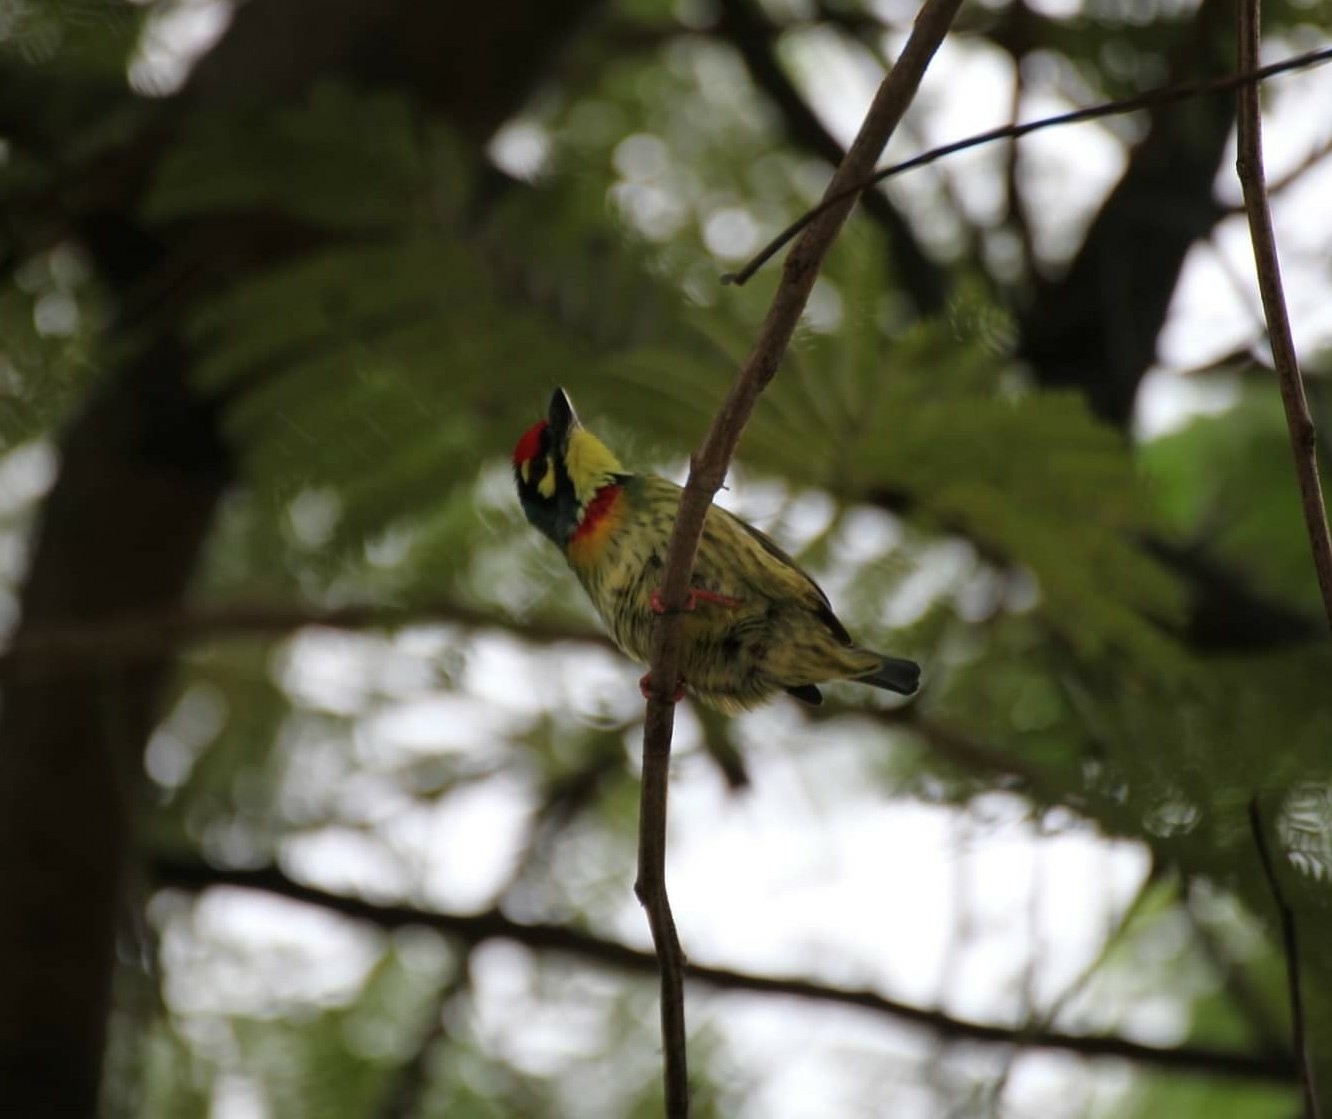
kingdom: Animalia
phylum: Chordata
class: Aves
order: Piciformes
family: Megalaimidae
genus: Psilopogon
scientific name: Psilopogon haemacephalus
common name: Coppersmith barbet
